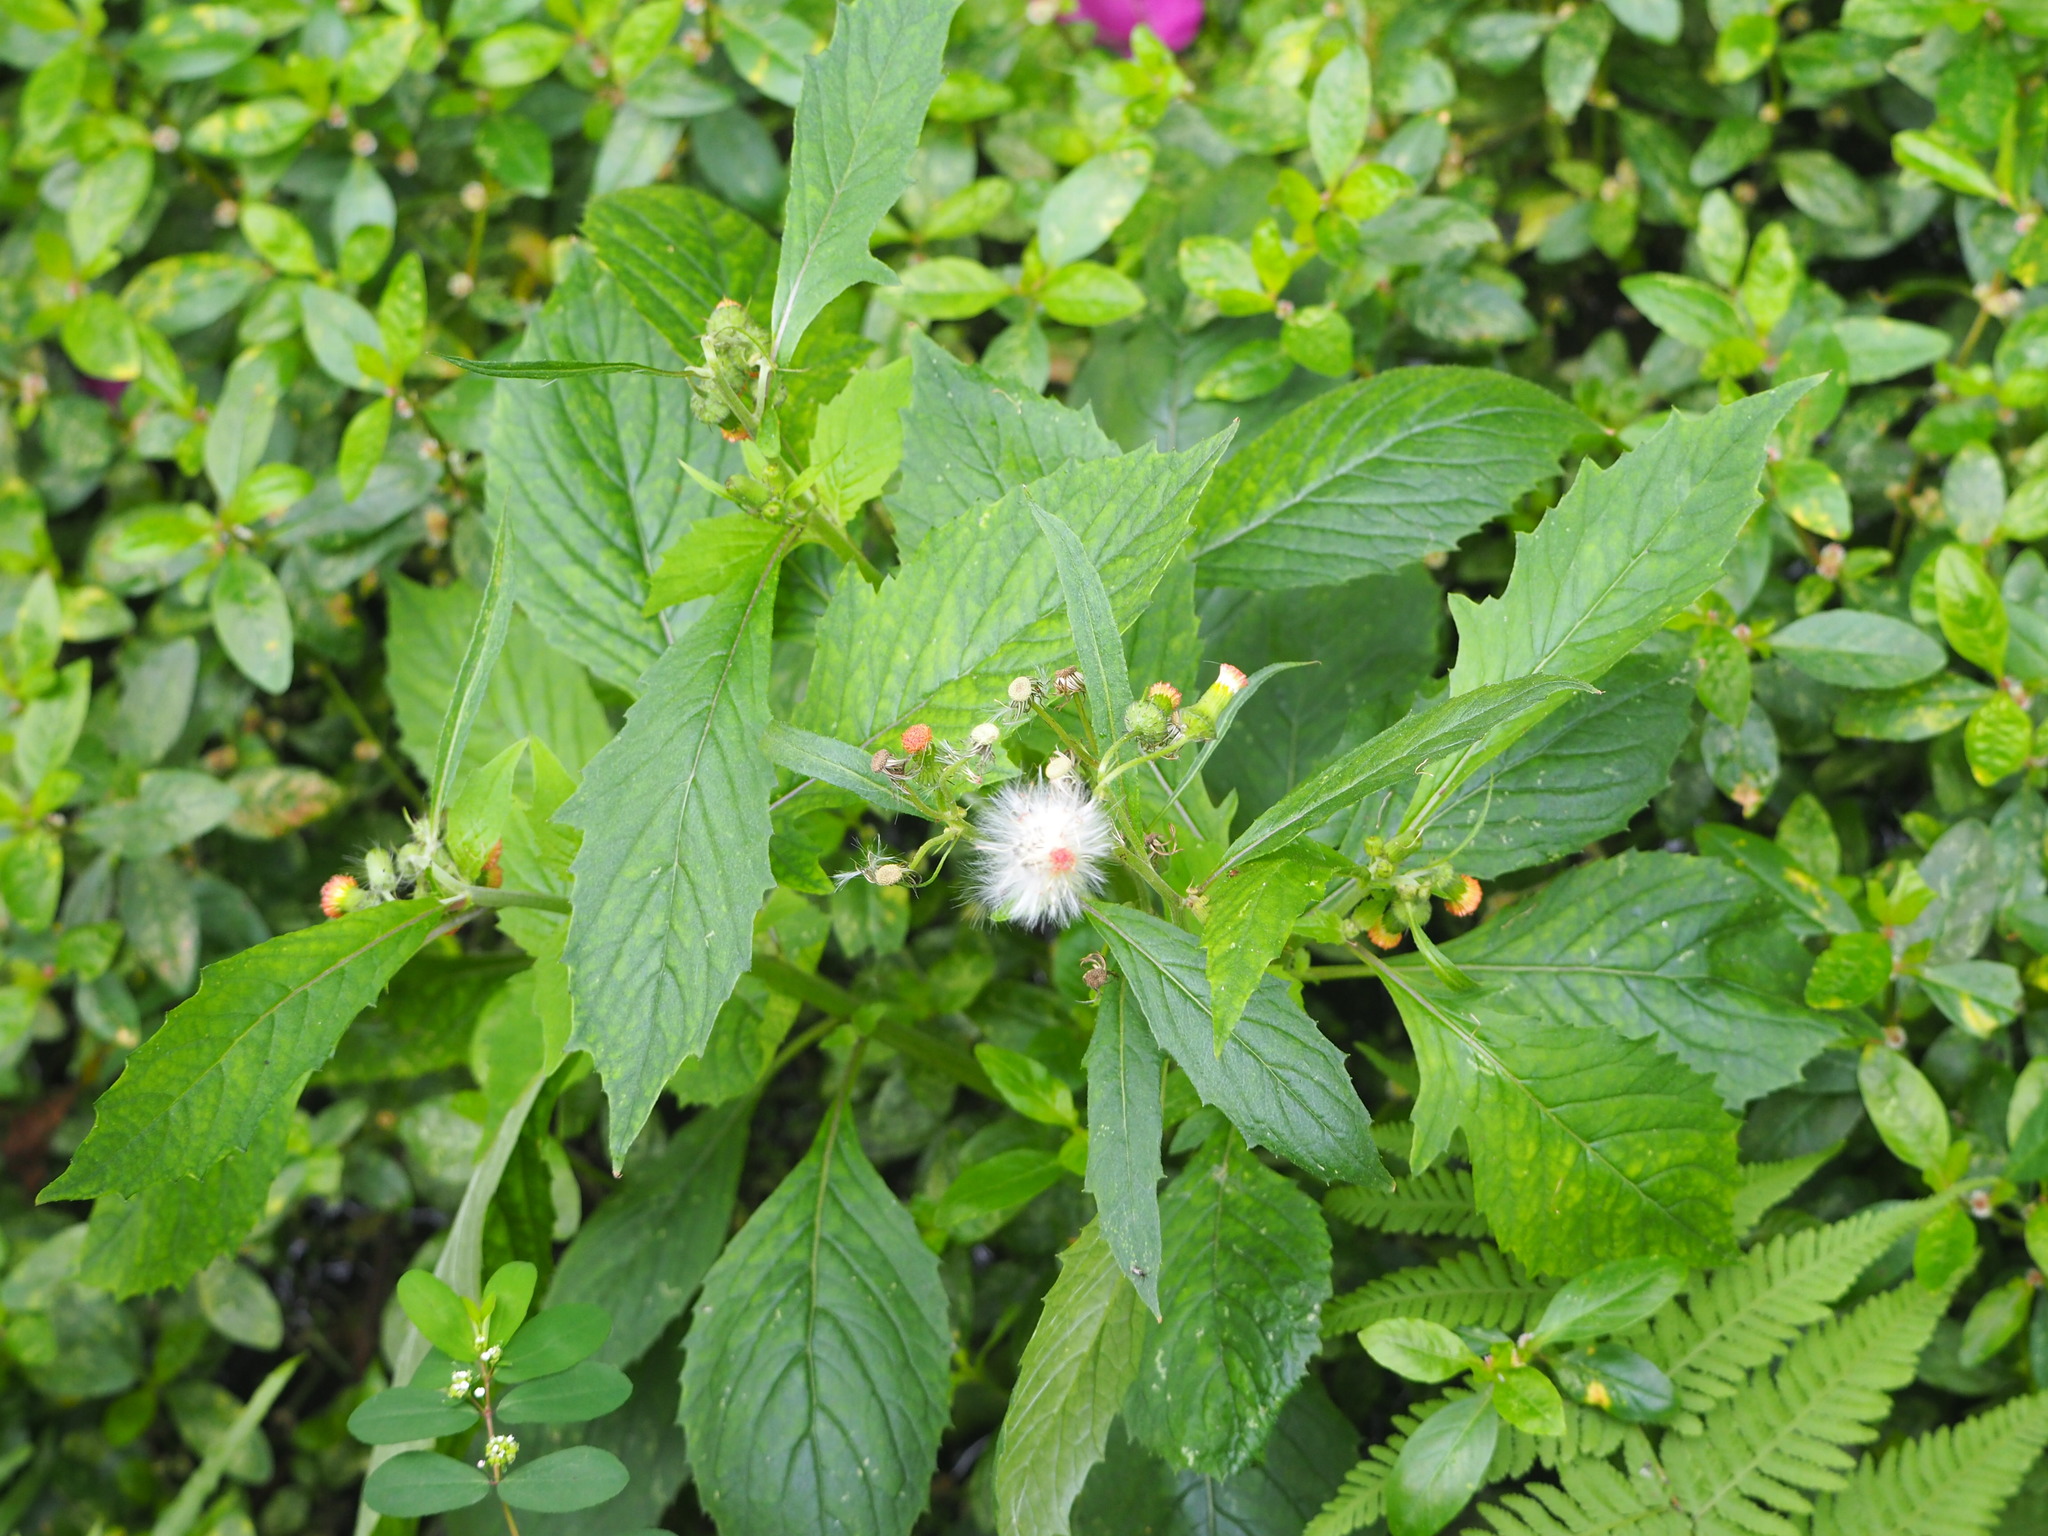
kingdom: Plantae
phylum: Tracheophyta
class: Magnoliopsida
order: Asterales
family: Asteraceae
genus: Crassocephalum
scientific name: Crassocephalum crepidioides
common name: Redflower ragleaf
